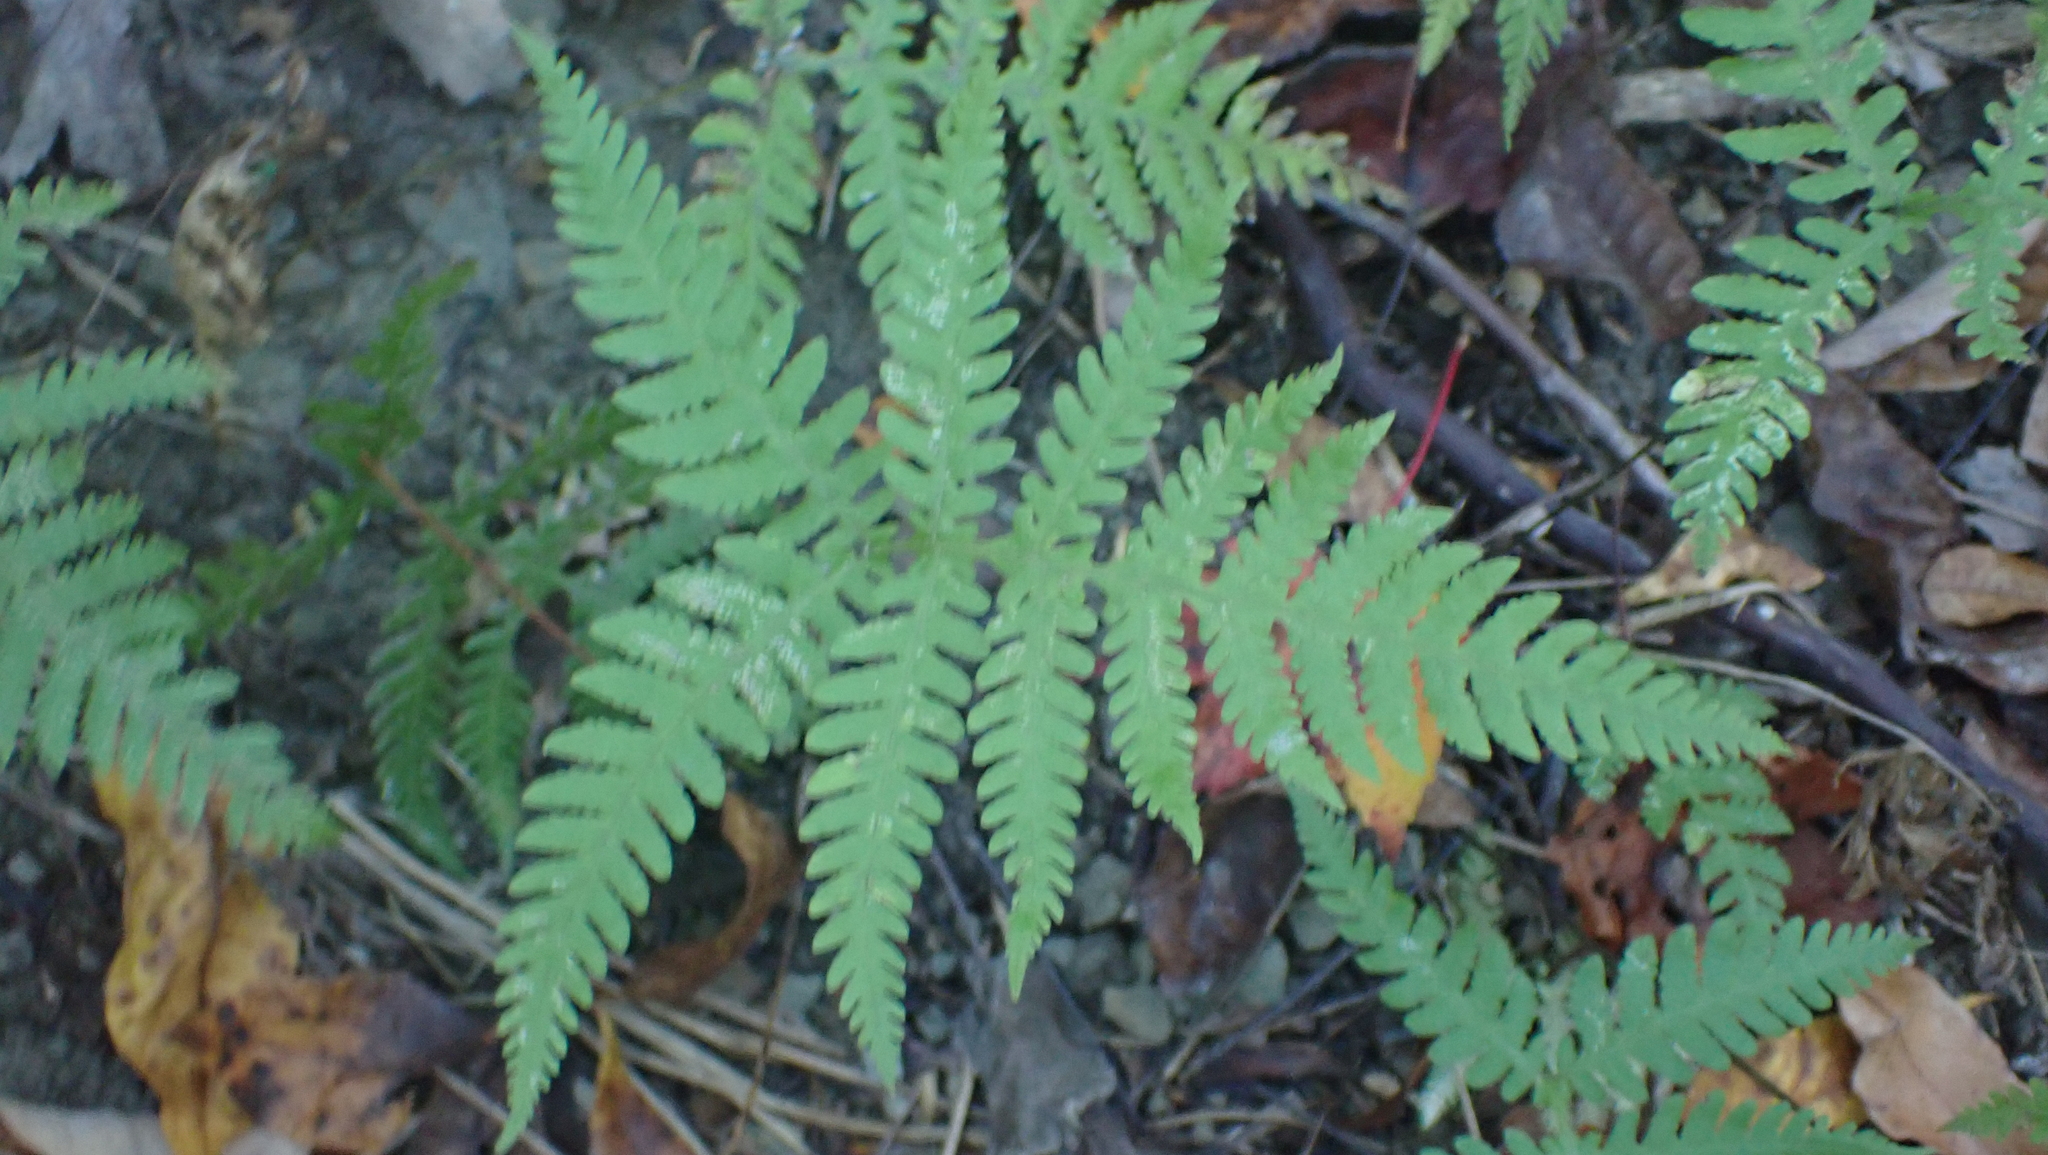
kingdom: Plantae
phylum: Tracheophyta
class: Polypodiopsida
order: Polypodiales
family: Thelypteridaceae
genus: Phegopteris
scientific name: Phegopteris hexagonoptera
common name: Broad beech fern
